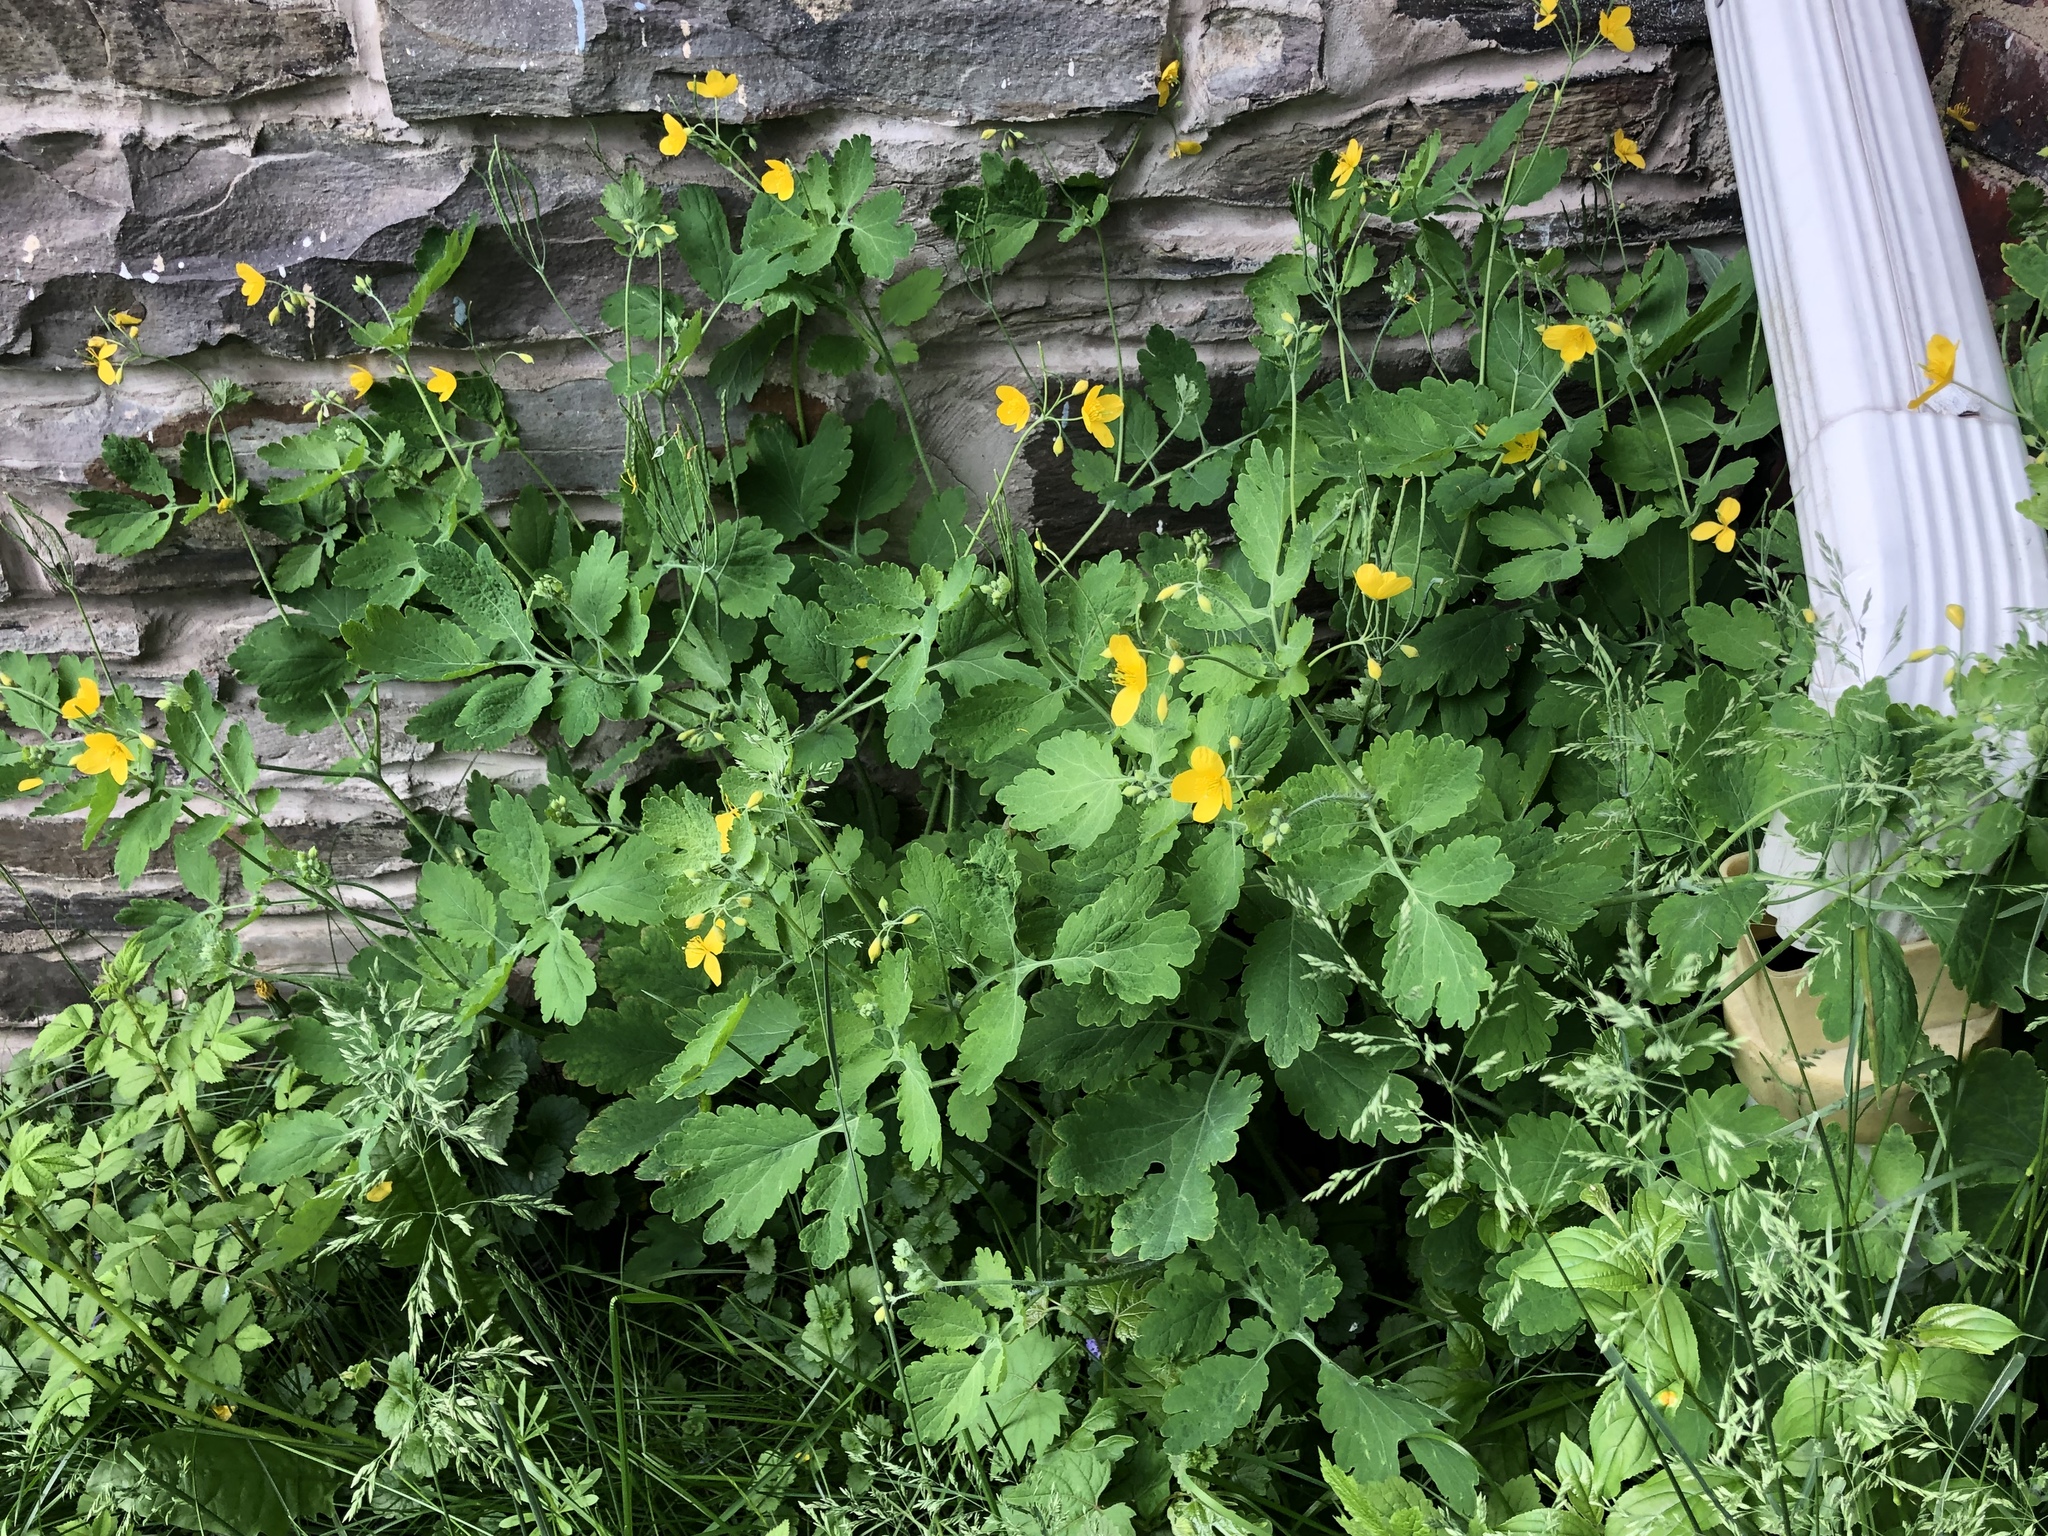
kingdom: Plantae
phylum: Tracheophyta
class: Magnoliopsida
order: Ranunculales
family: Papaveraceae
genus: Chelidonium
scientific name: Chelidonium majus
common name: Greater celandine
